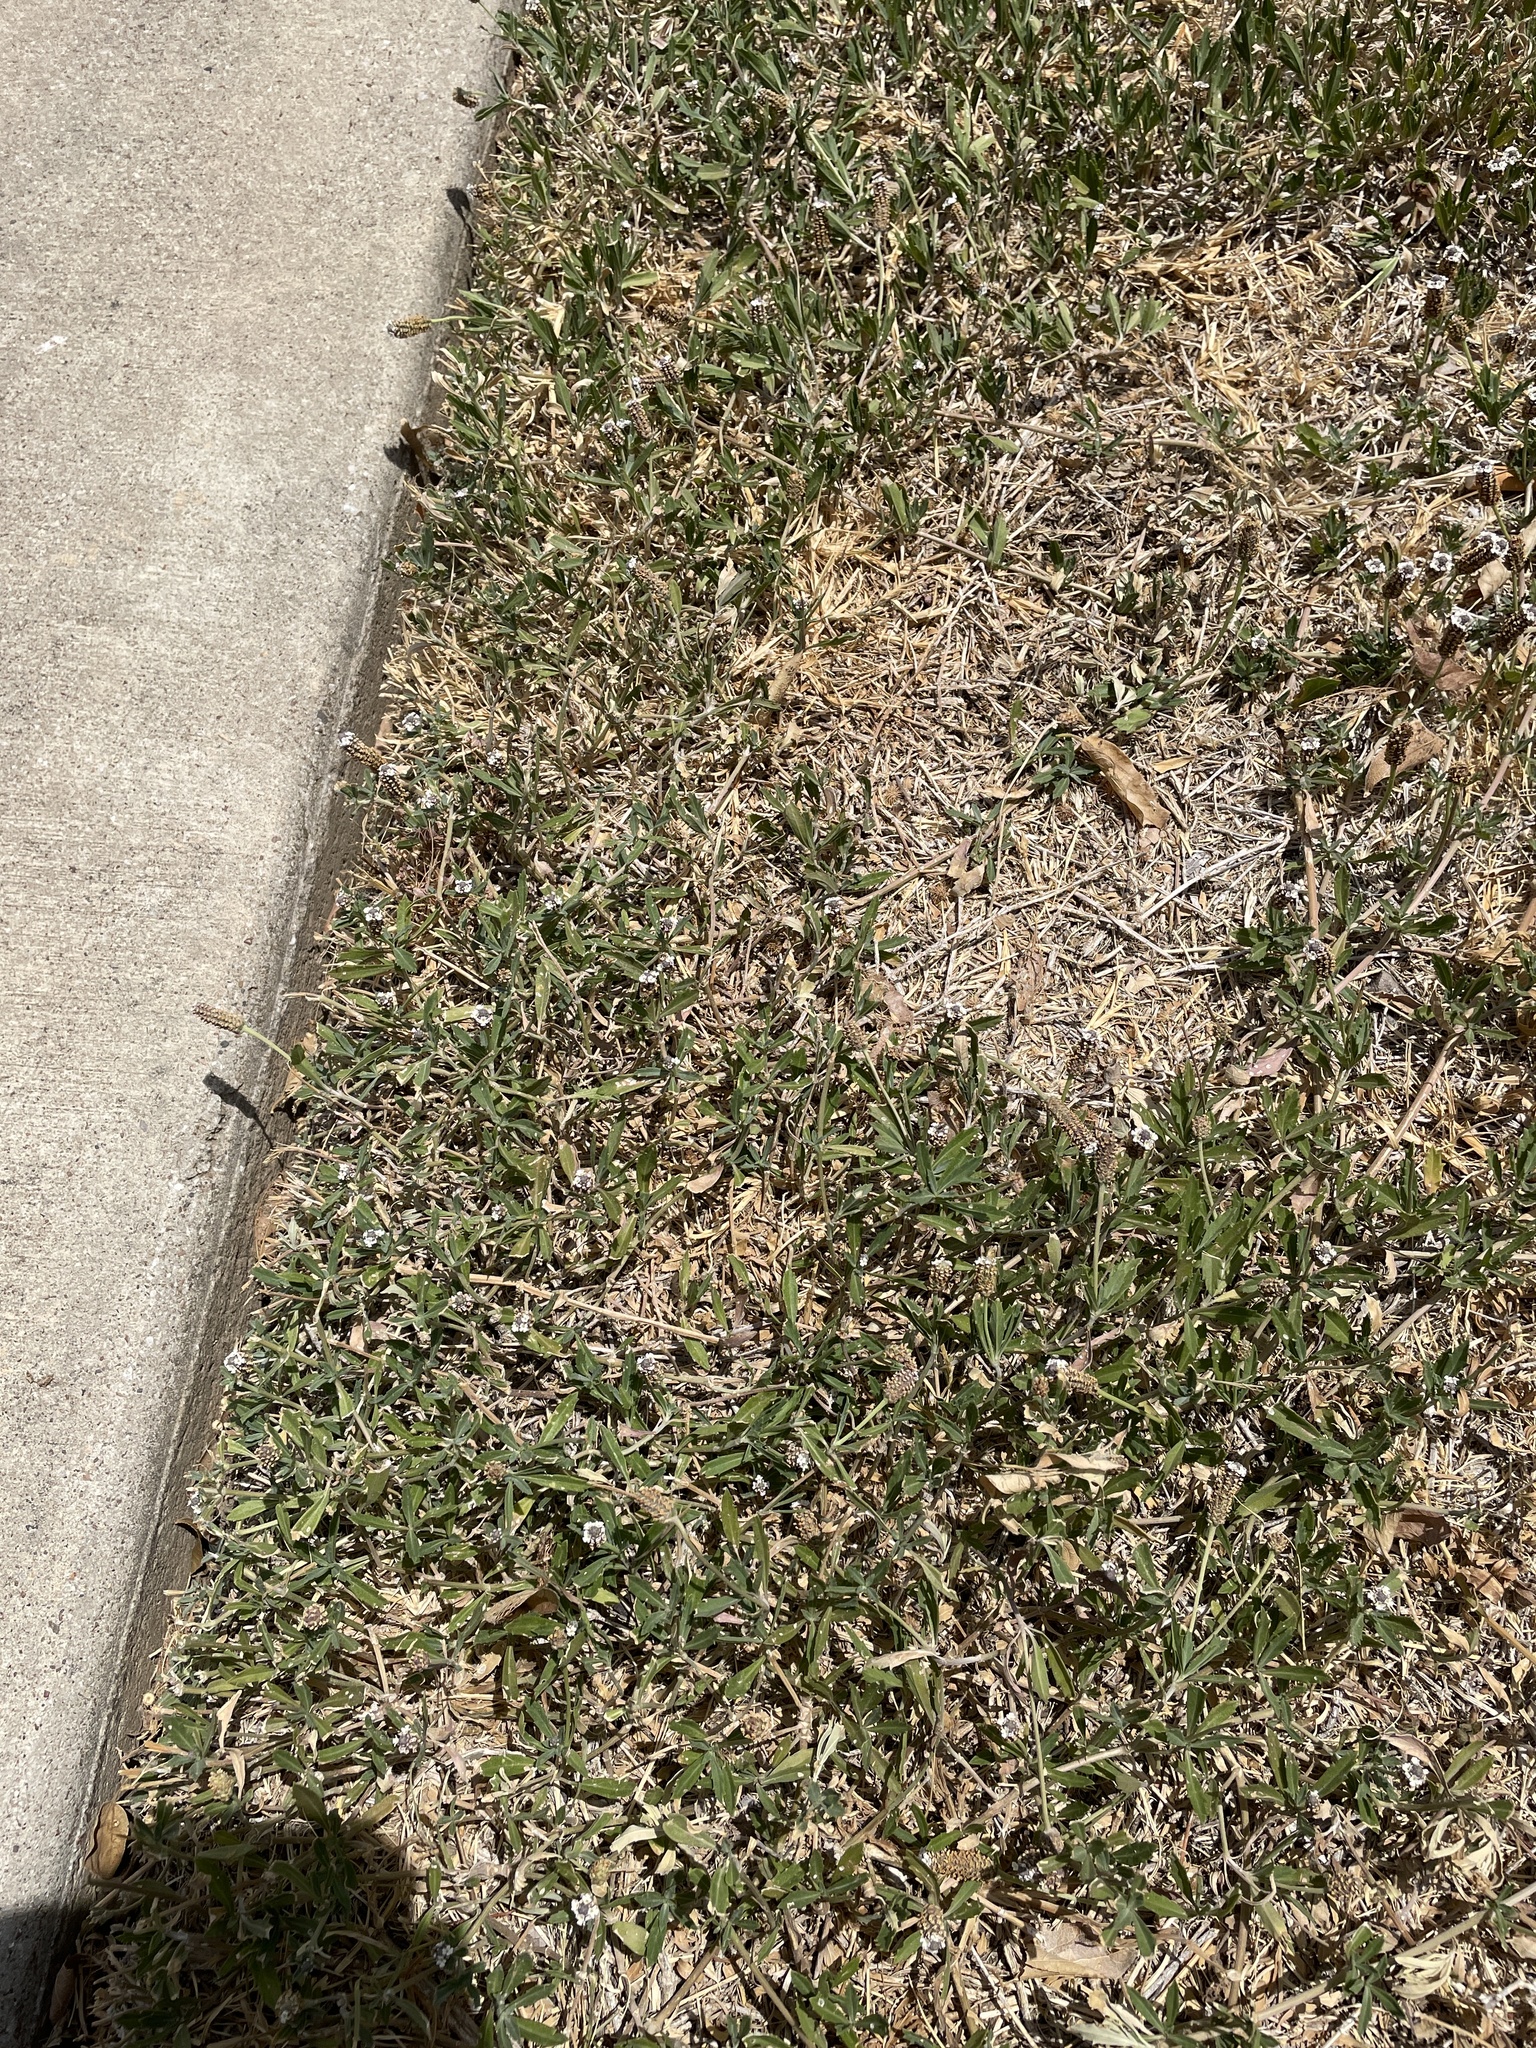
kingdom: Plantae
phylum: Tracheophyta
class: Magnoliopsida
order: Lamiales
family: Verbenaceae
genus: Phyla
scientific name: Phyla nodiflora
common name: Frogfruit
